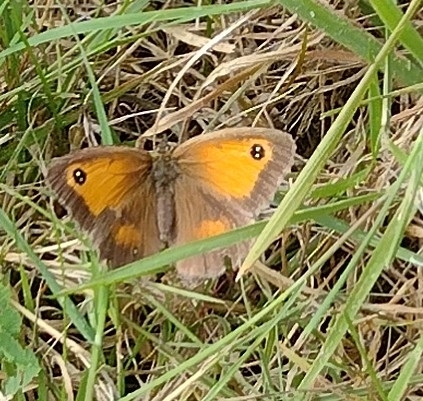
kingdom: Animalia
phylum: Arthropoda
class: Insecta
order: Lepidoptera
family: Nymphalidae
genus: Pyronia
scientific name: Pyronia tithonus
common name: Gatekeeper
